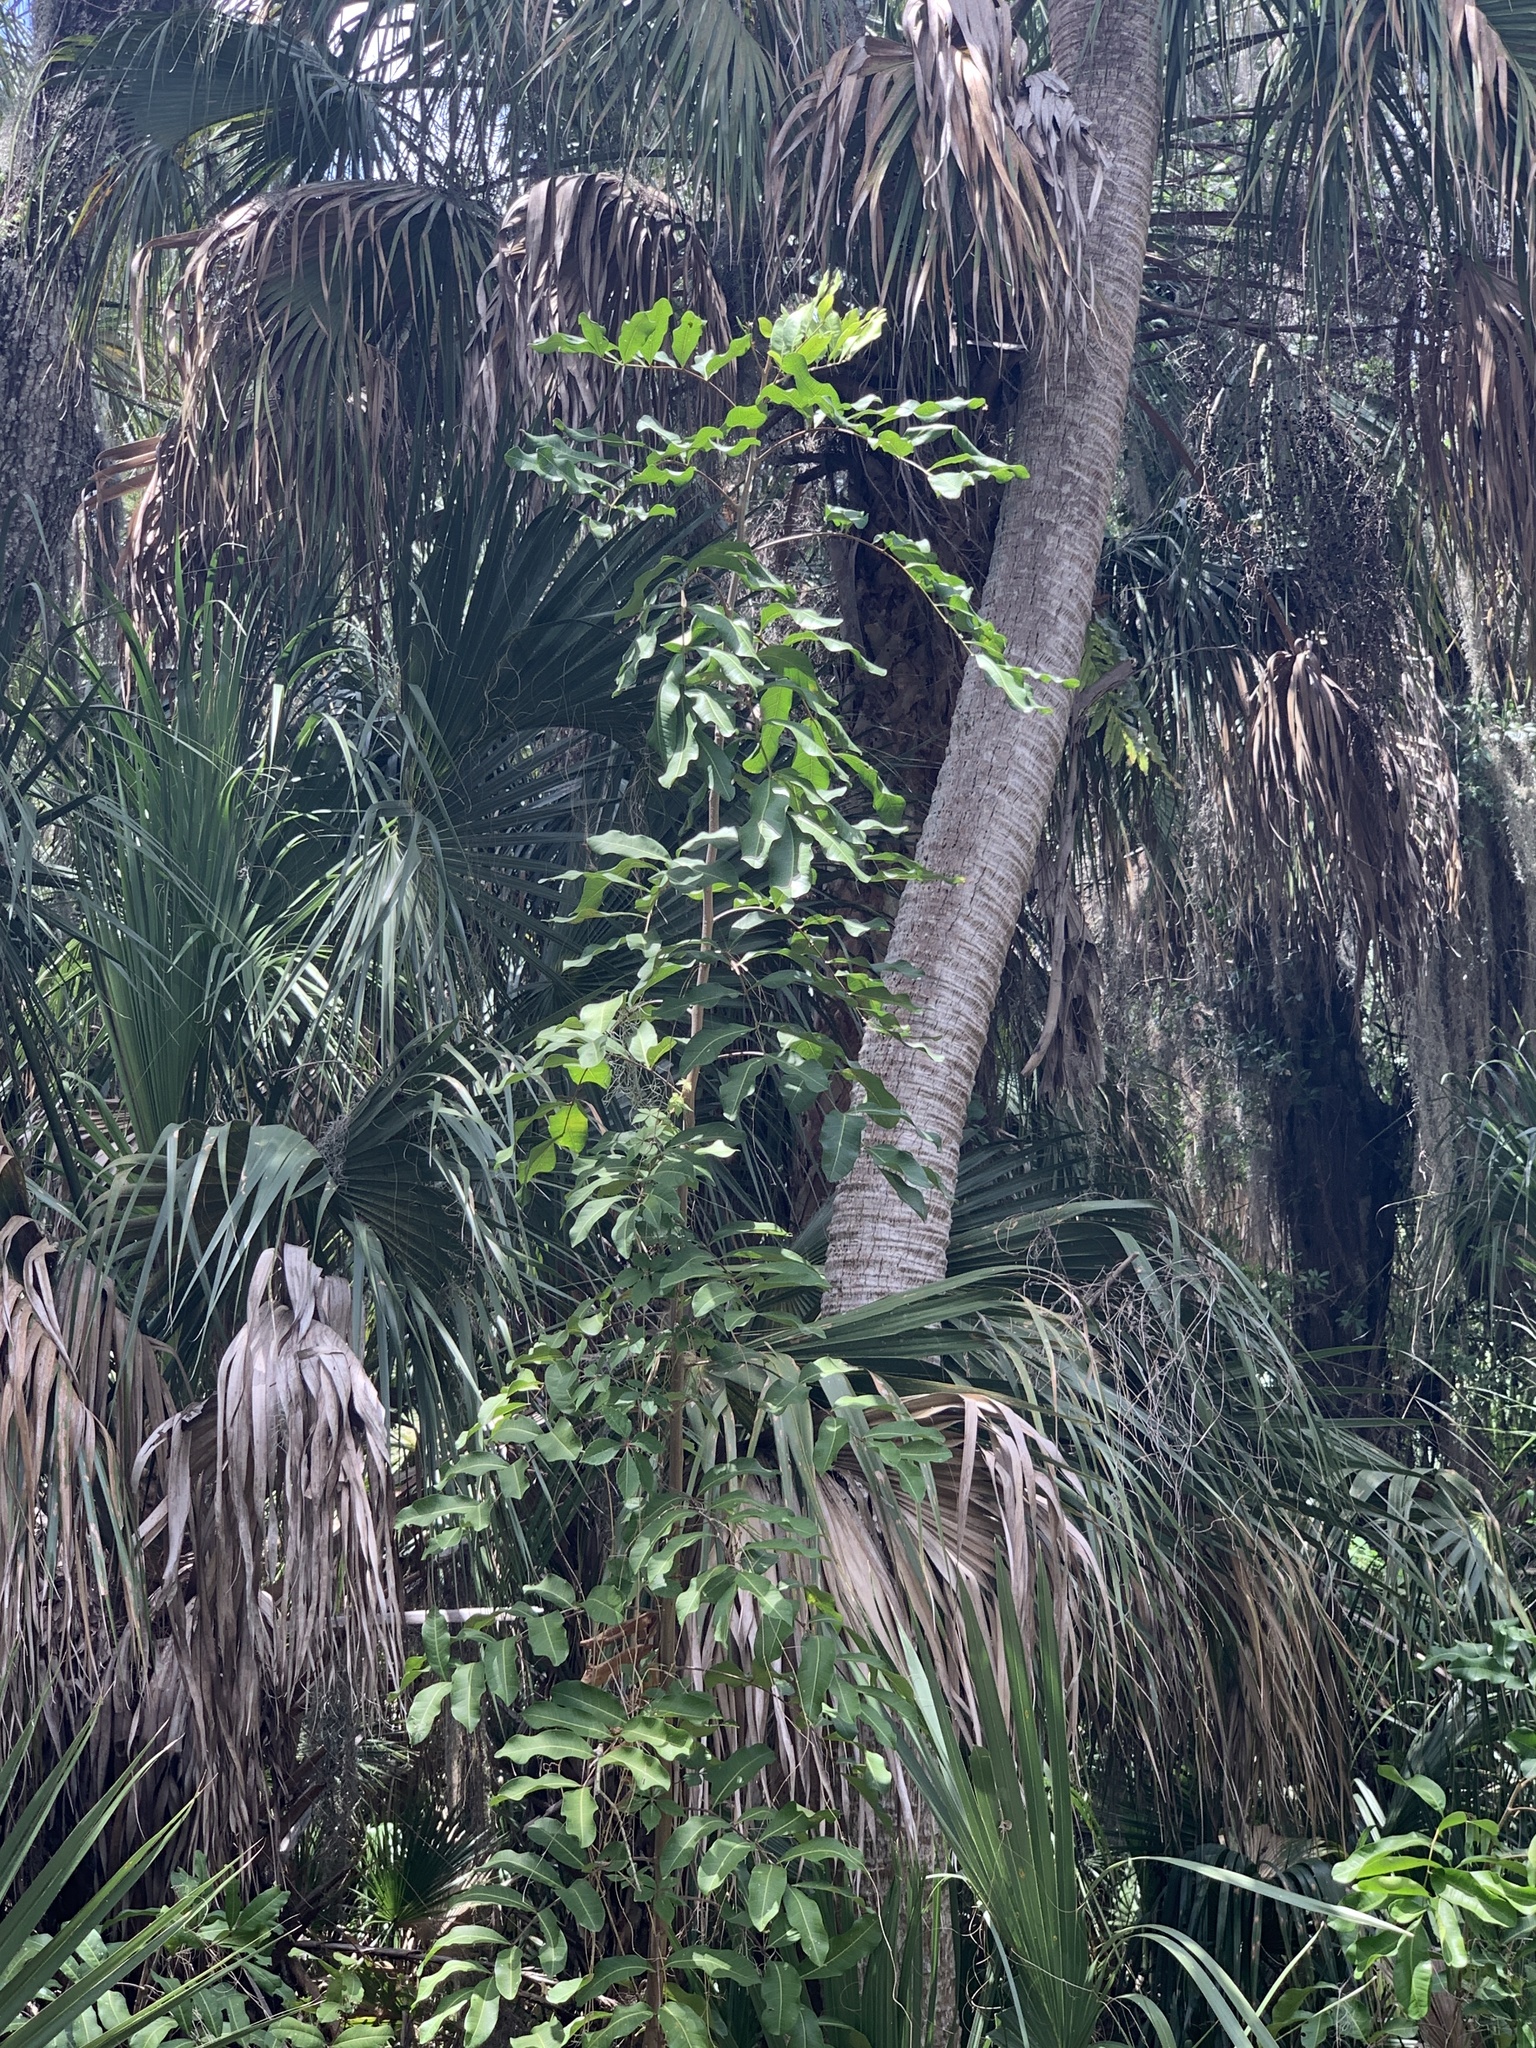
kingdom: Plantae
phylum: Tracheophyta
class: Magnoliopsida
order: Sapindales
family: Sapindaceae
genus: Cupaniopsis
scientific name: Cupaniopsis anacardioides
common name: Carrotwood
